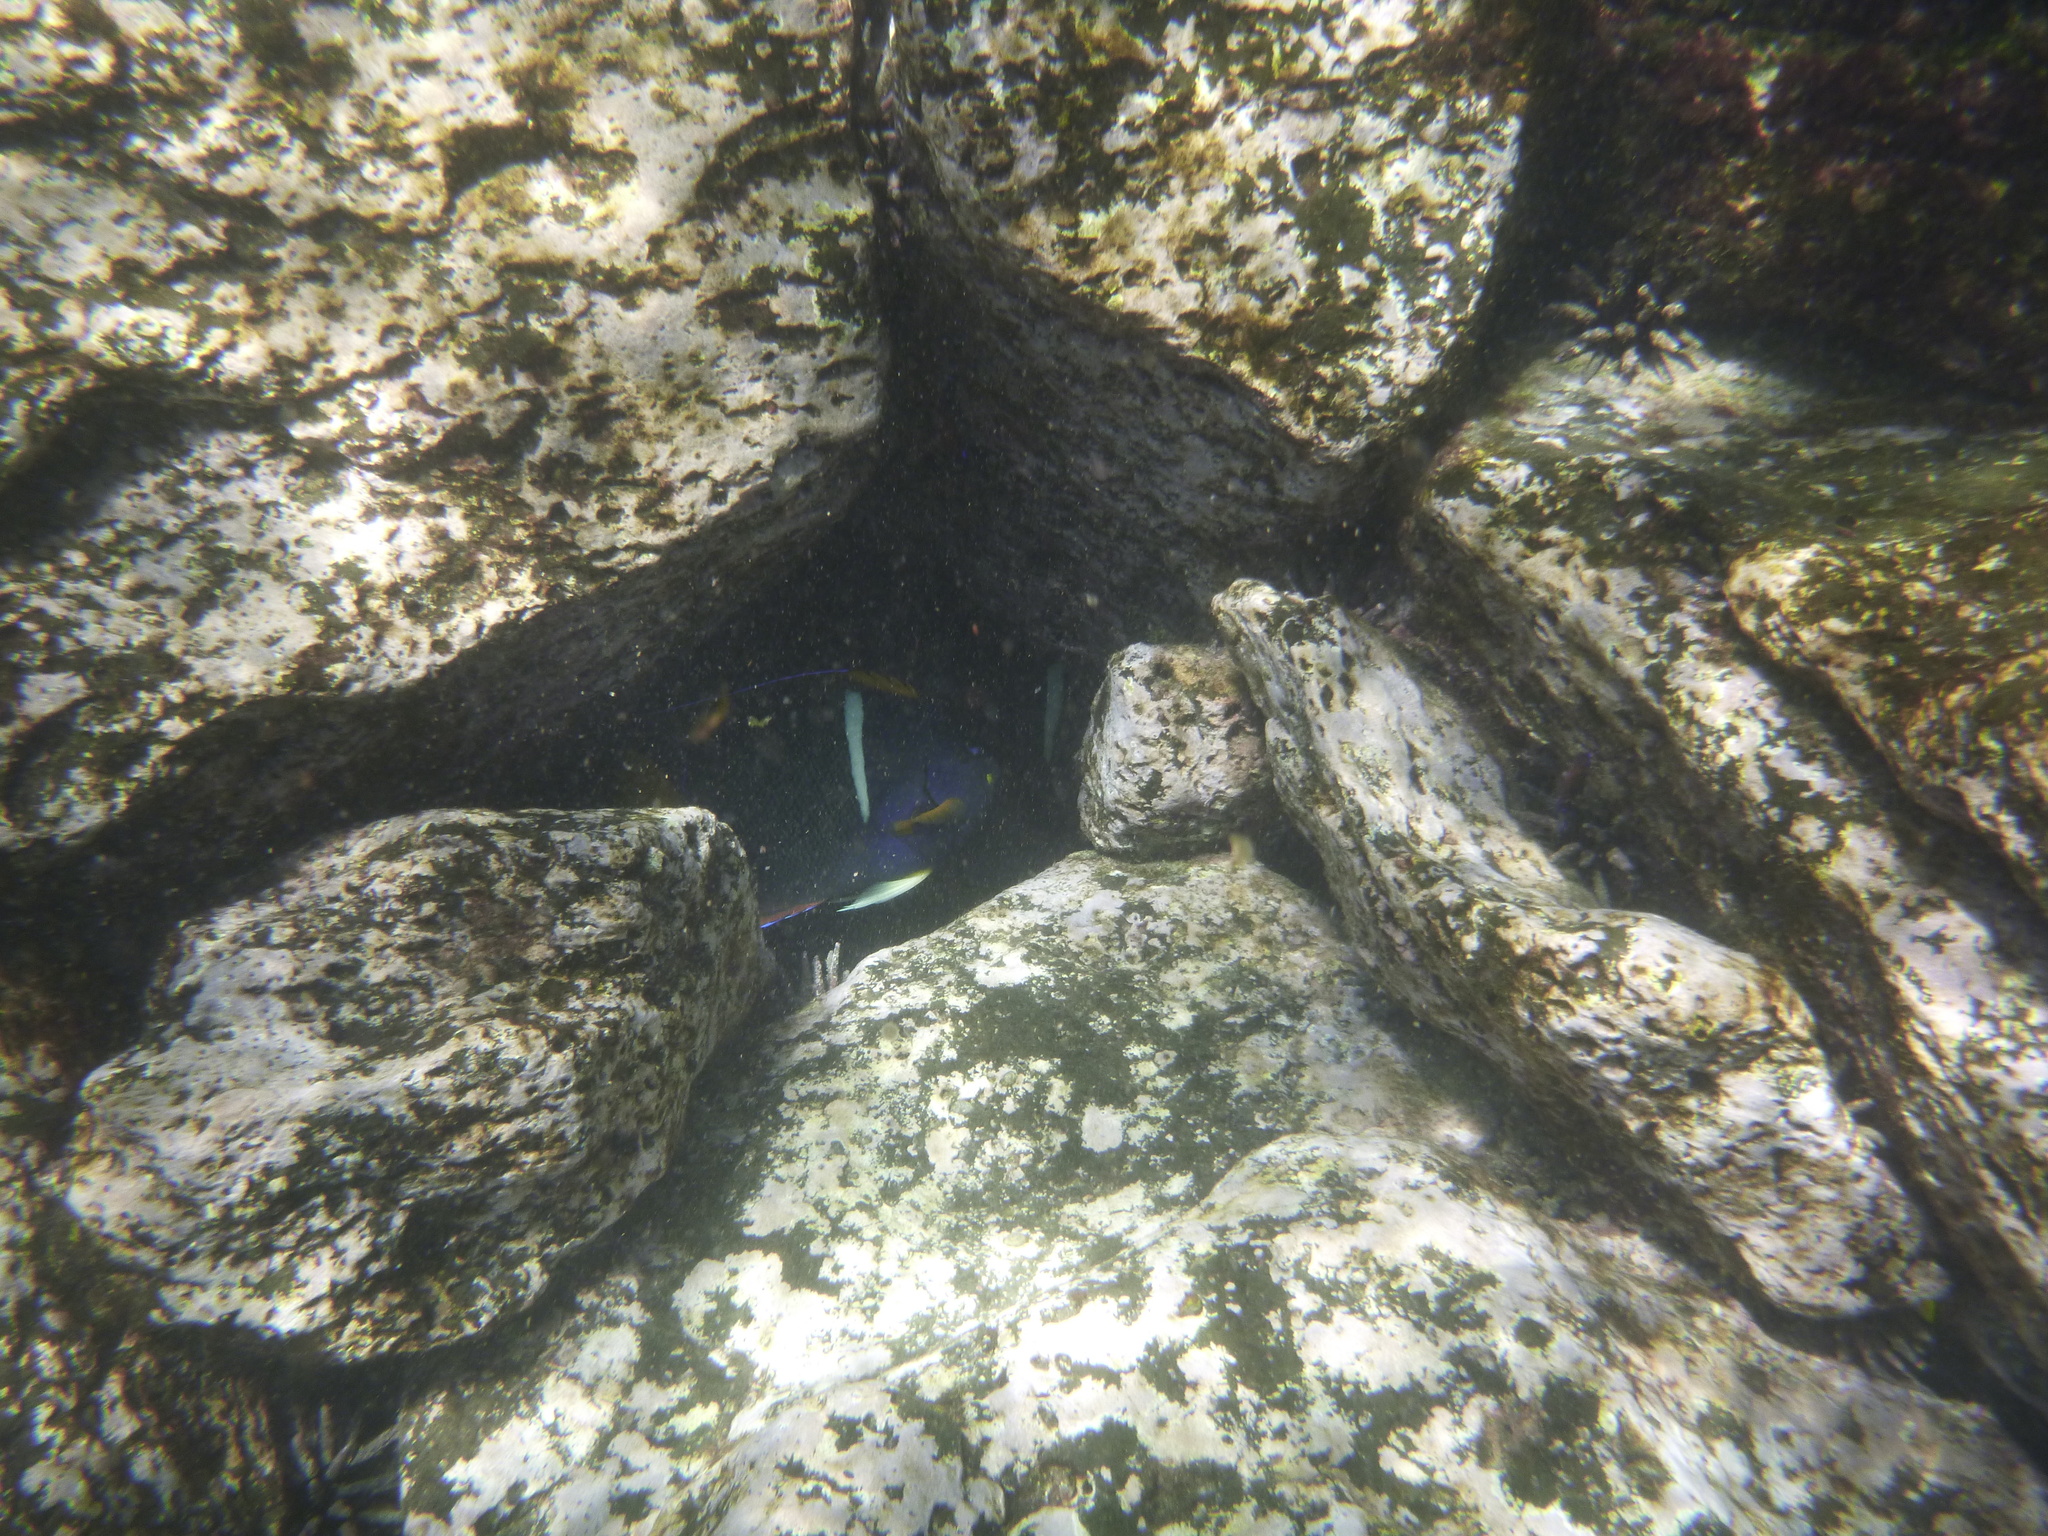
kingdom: Animalia
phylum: Chordata
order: Perciformes
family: Pomacanthidae
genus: Holacanthus
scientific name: Holacanthus passer
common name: King angelfish
